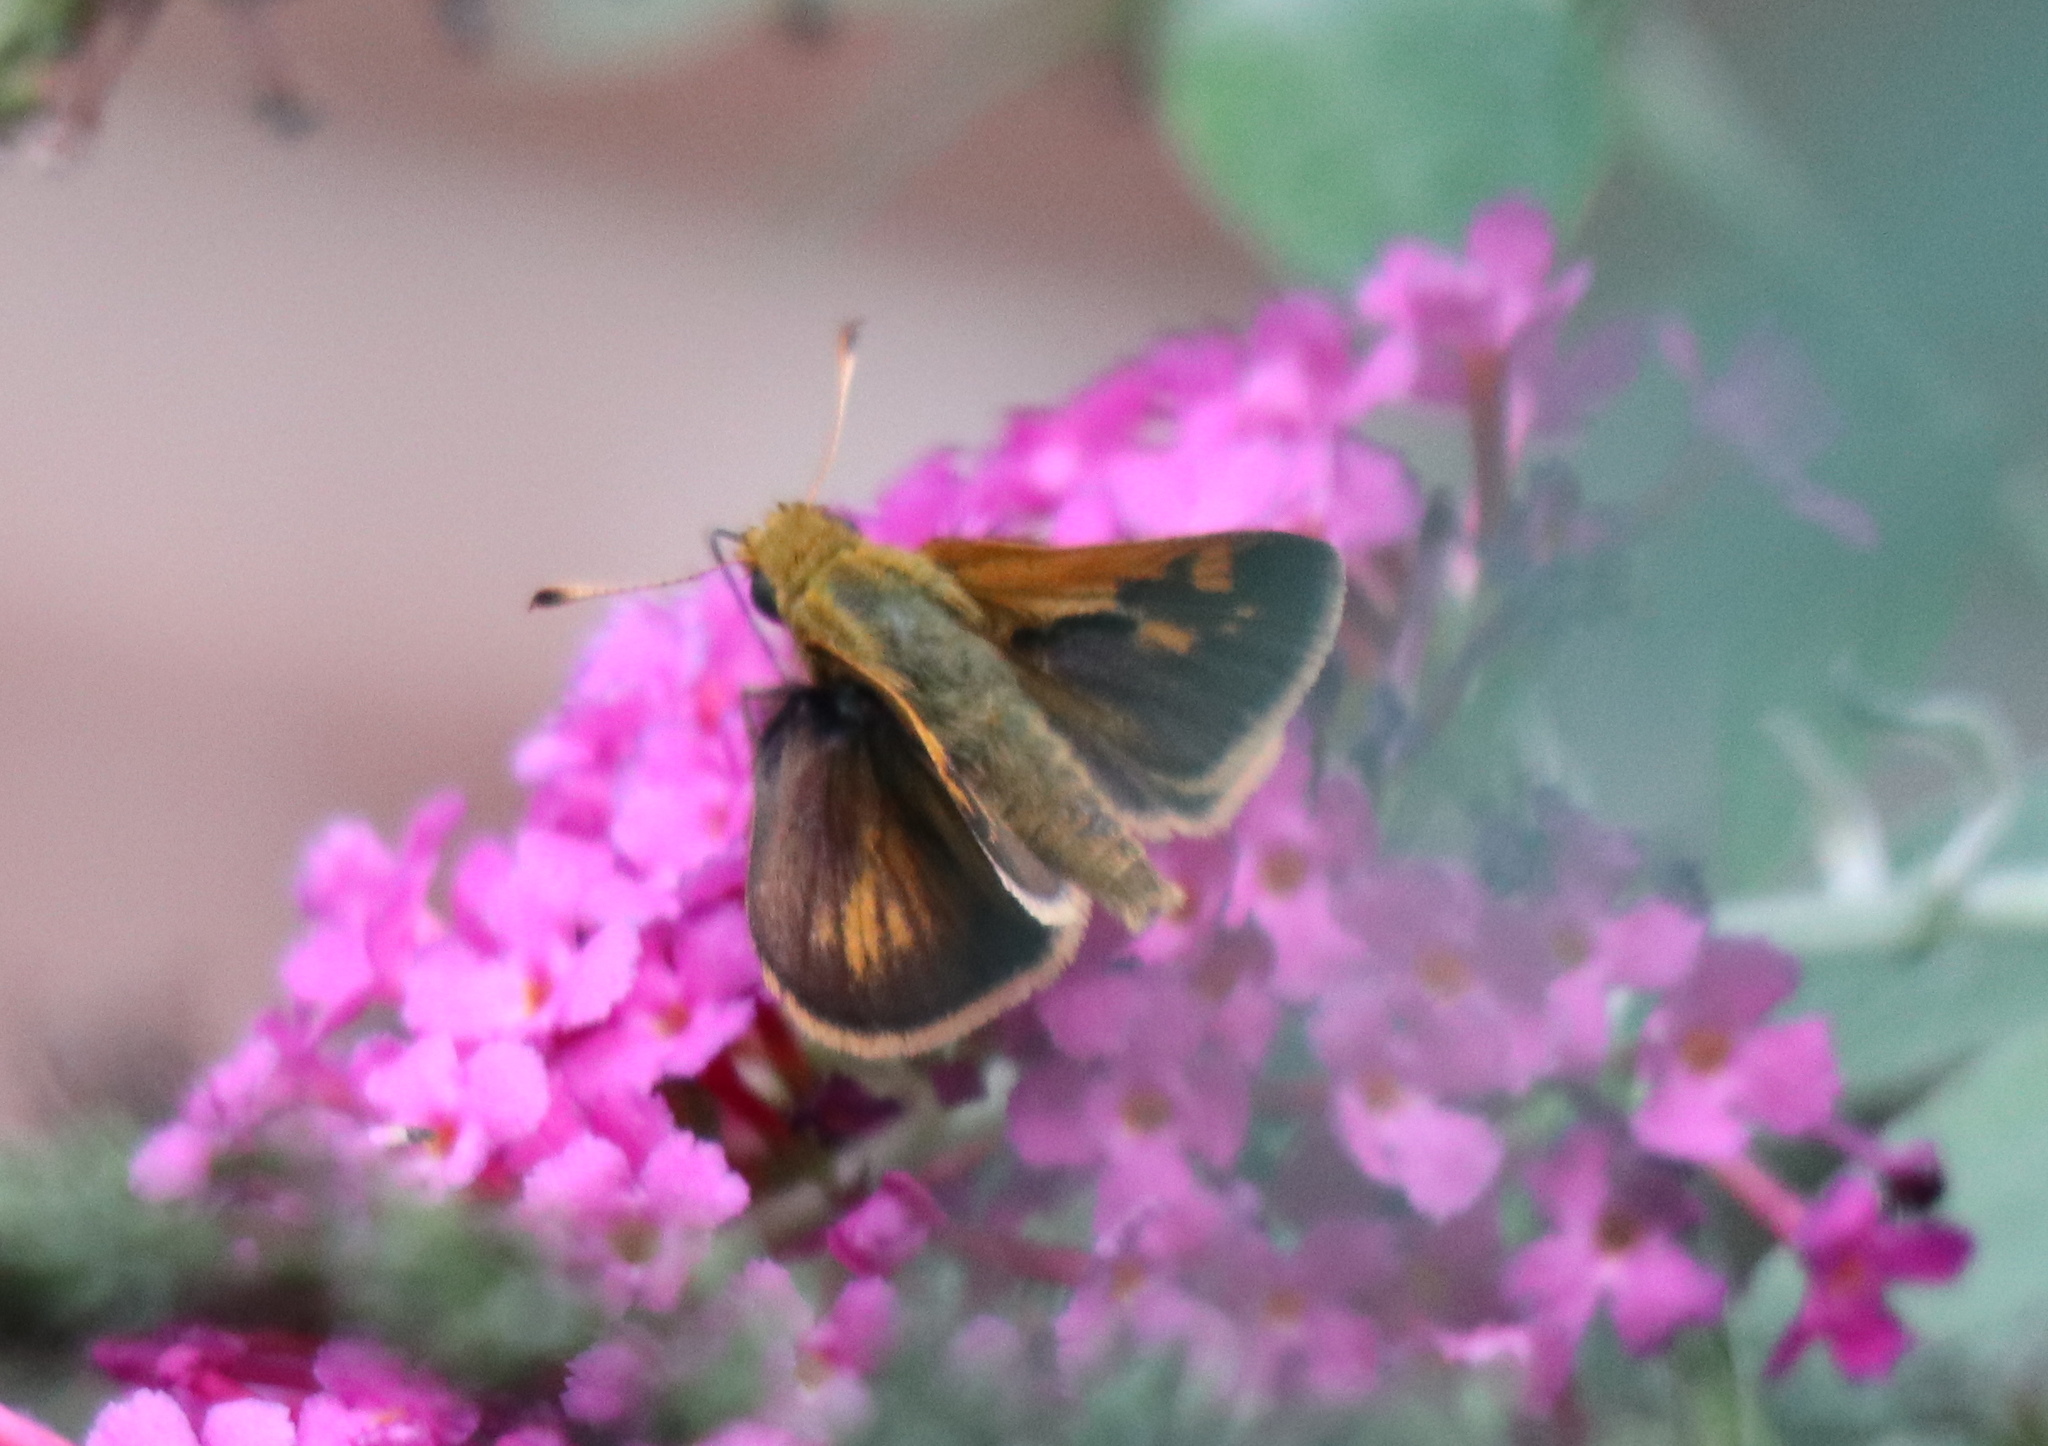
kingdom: Animalia
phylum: Arthropoda
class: Insecta
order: Lepidoptera
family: Hesperiidae
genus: Polites
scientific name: Polites coras
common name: Peck's skipper
